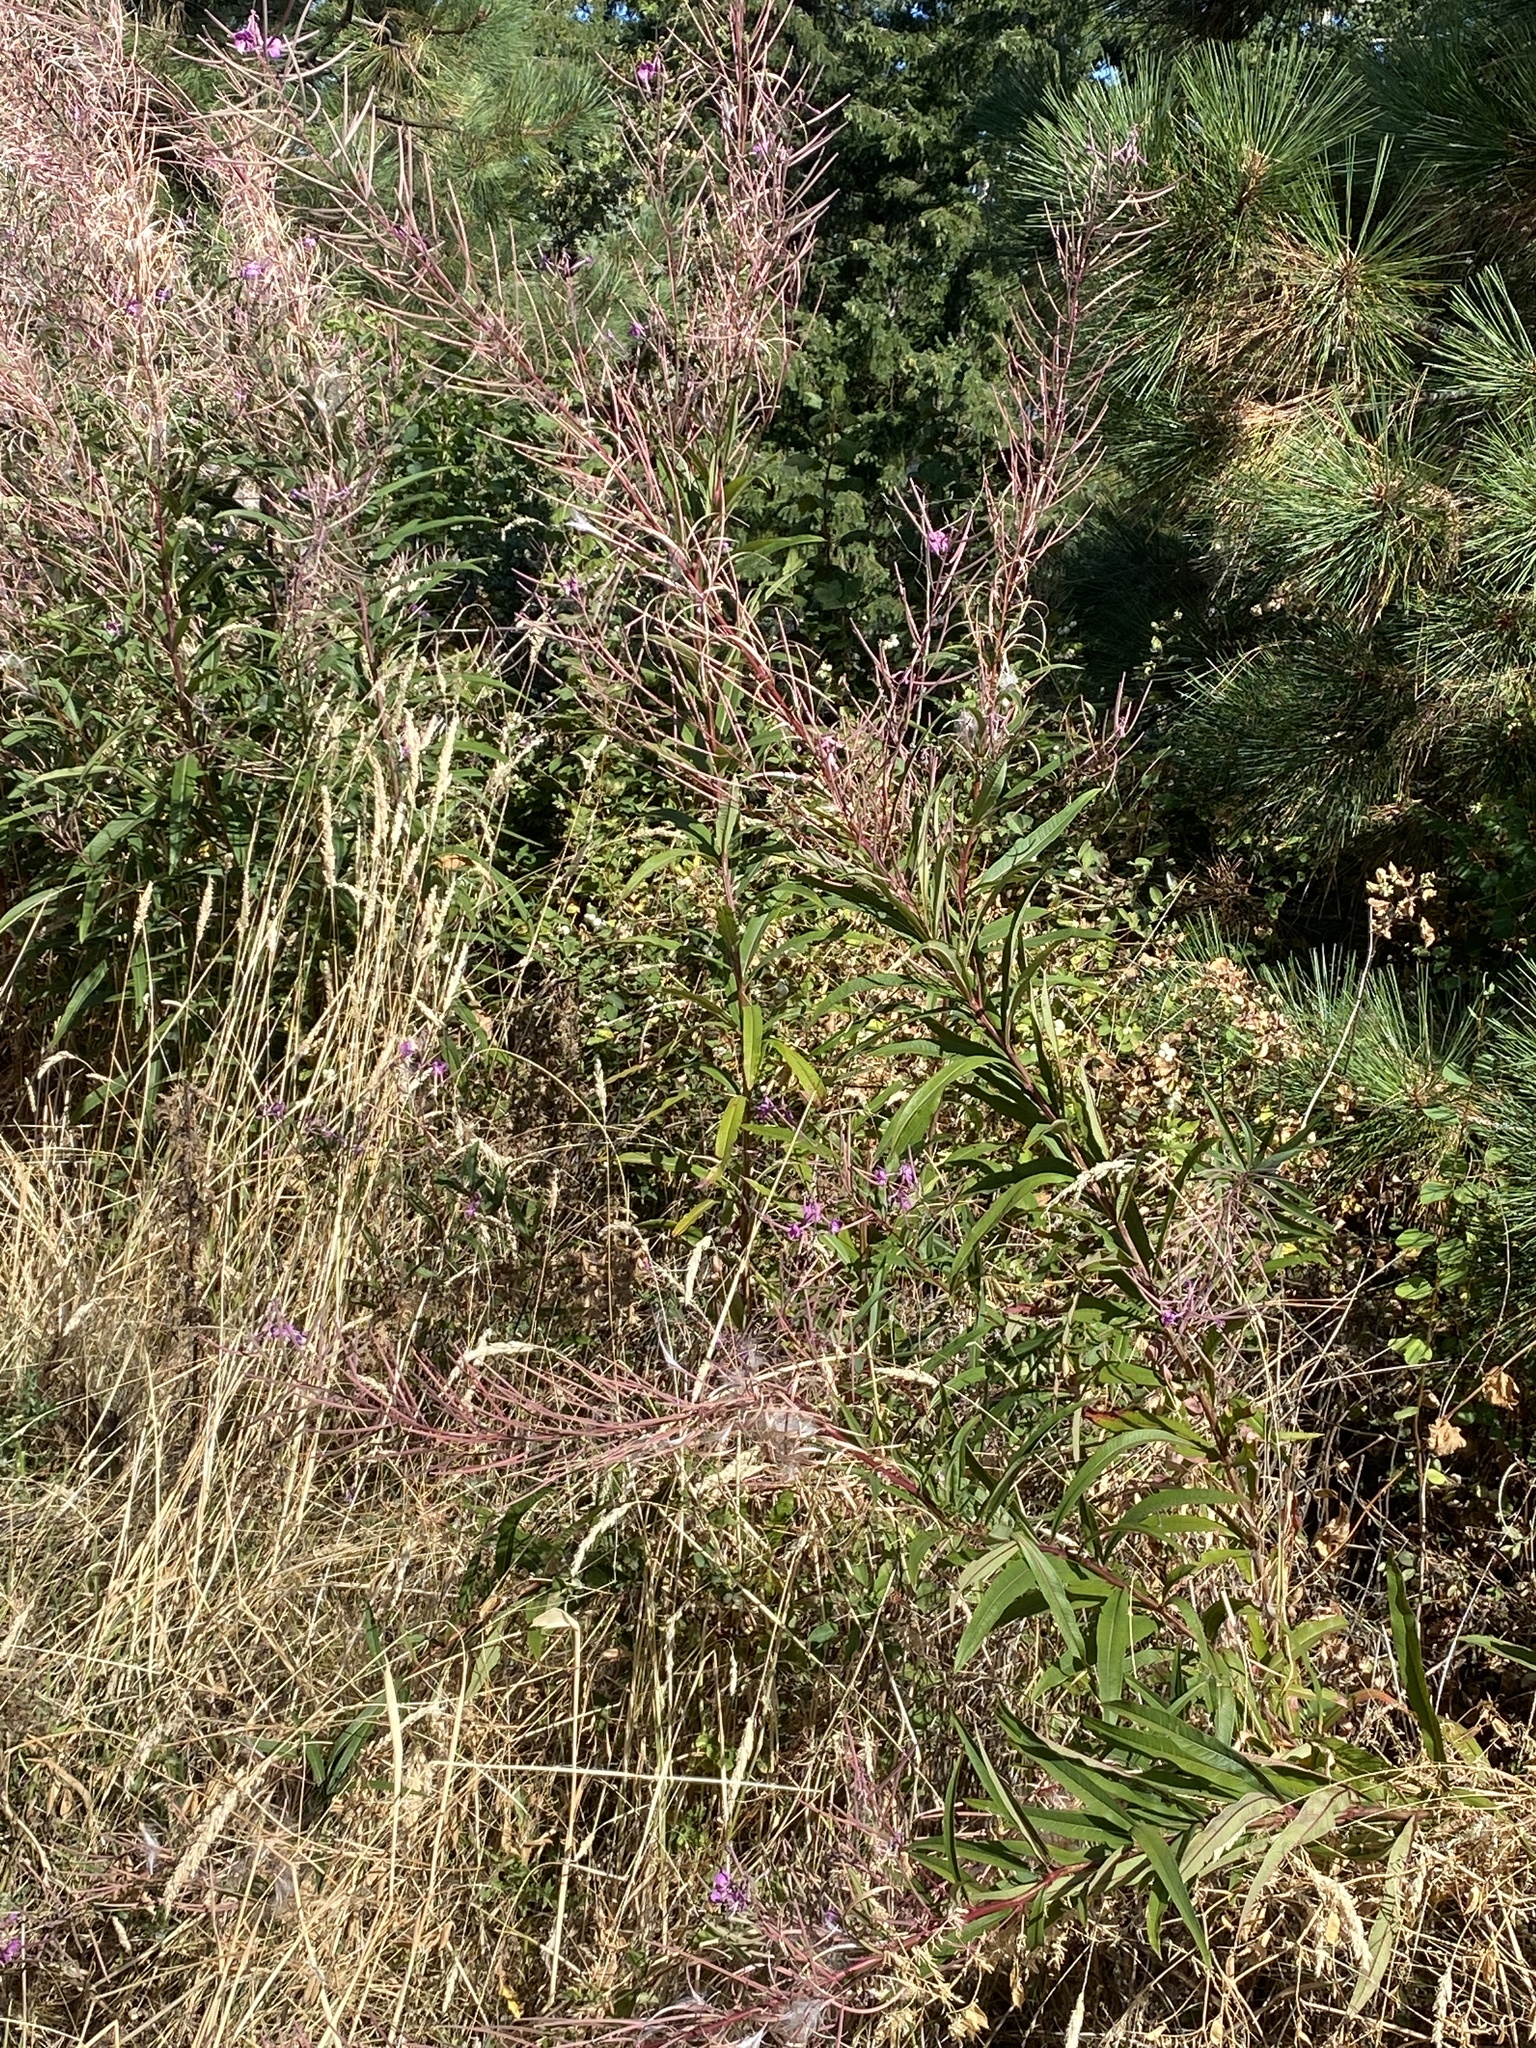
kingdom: Plantae
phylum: Tracheophyta
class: Magnoliopsida
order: Myrtales
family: Onagraceae
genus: Chamaenerion
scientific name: Chamaenerion angustifolium
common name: Fireweed
